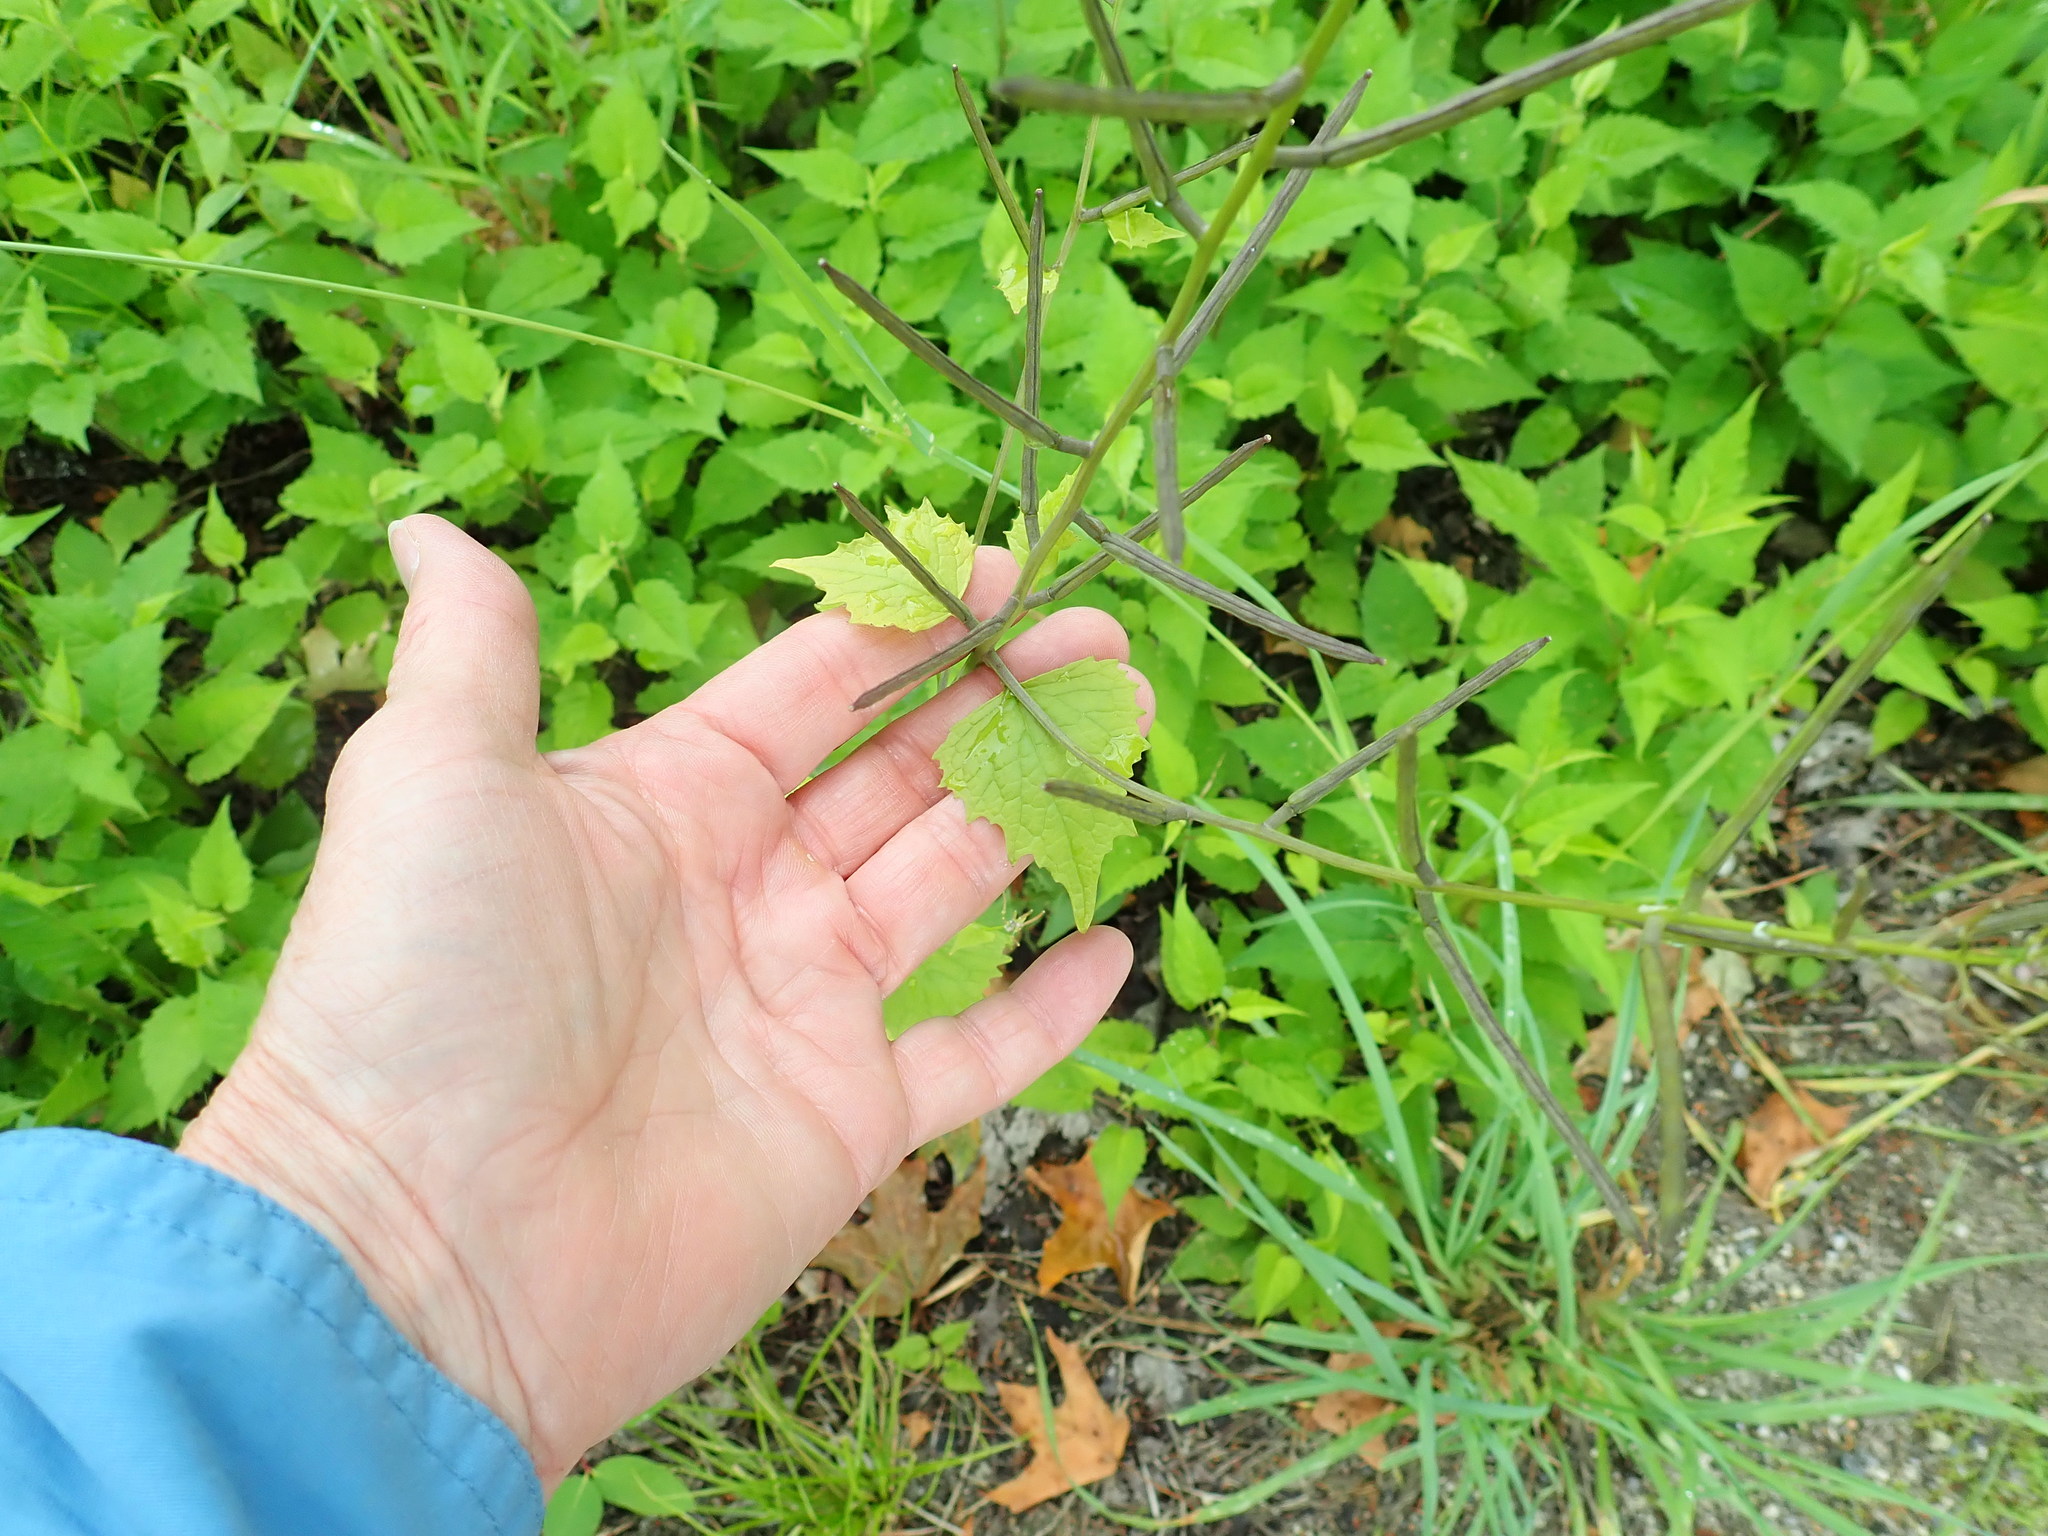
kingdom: Plantae
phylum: Tracheophyta
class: Magnoliopsida
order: Brassicales
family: Brassicaceae
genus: Alliaria
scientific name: Alliaria petiolata
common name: Garlic mustard
